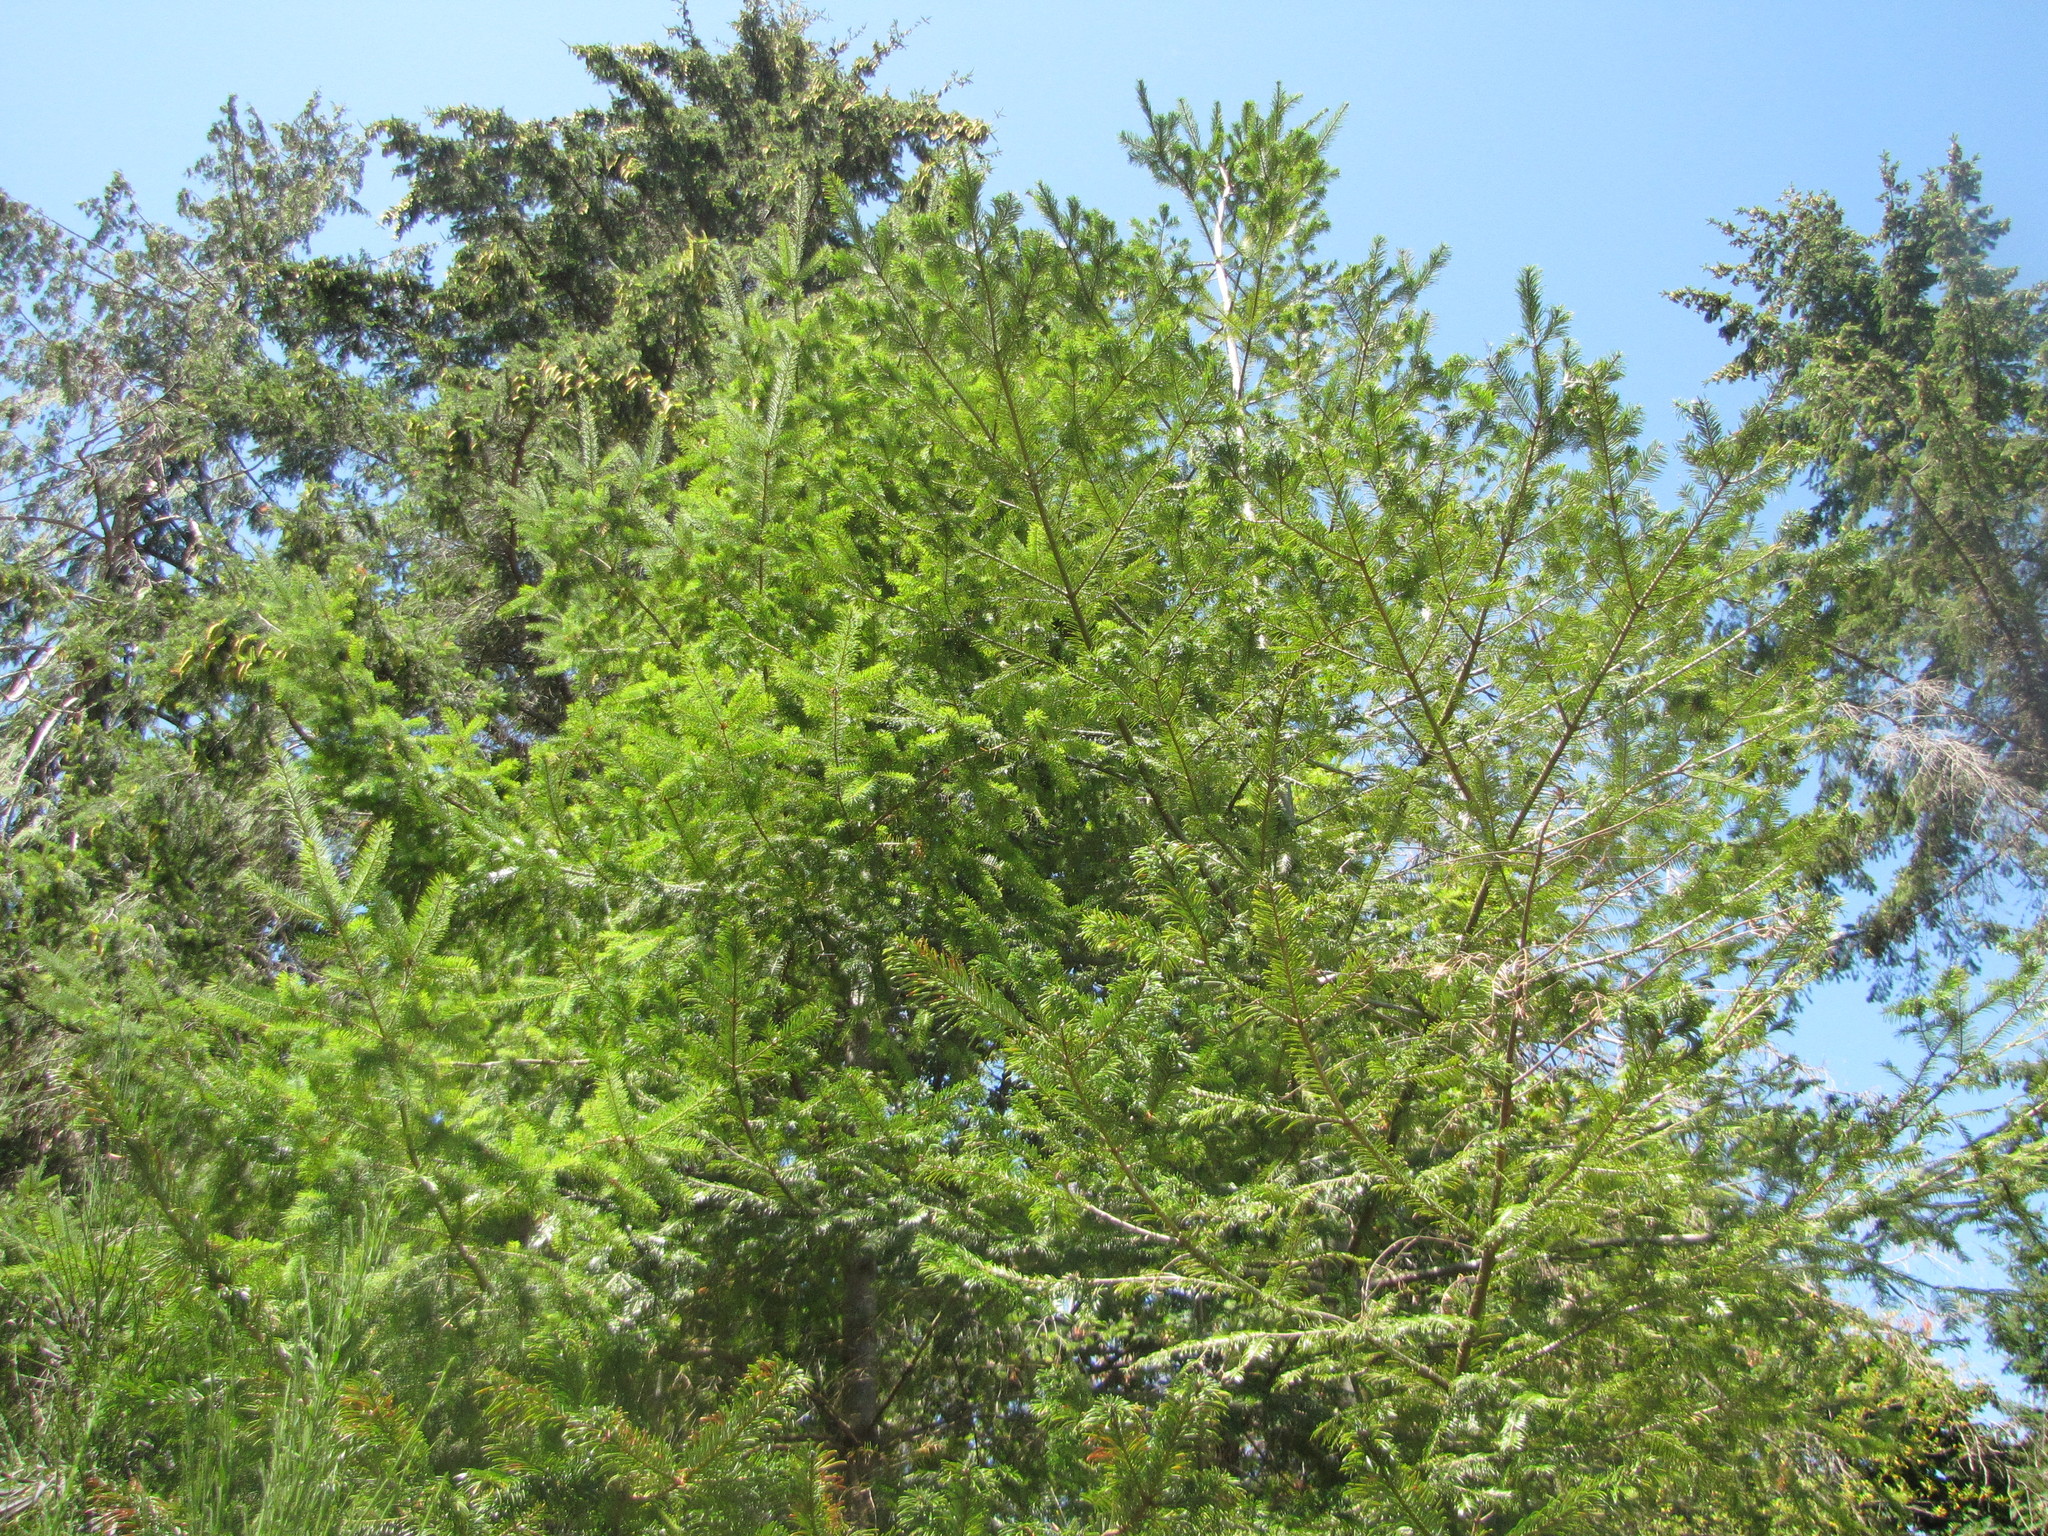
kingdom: Plantae
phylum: Tracheophyta
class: Pinopsida
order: Pinales
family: Pinaceae
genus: Pseudotsuga
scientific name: Pseudotsuga menziesii
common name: Douglas fir
